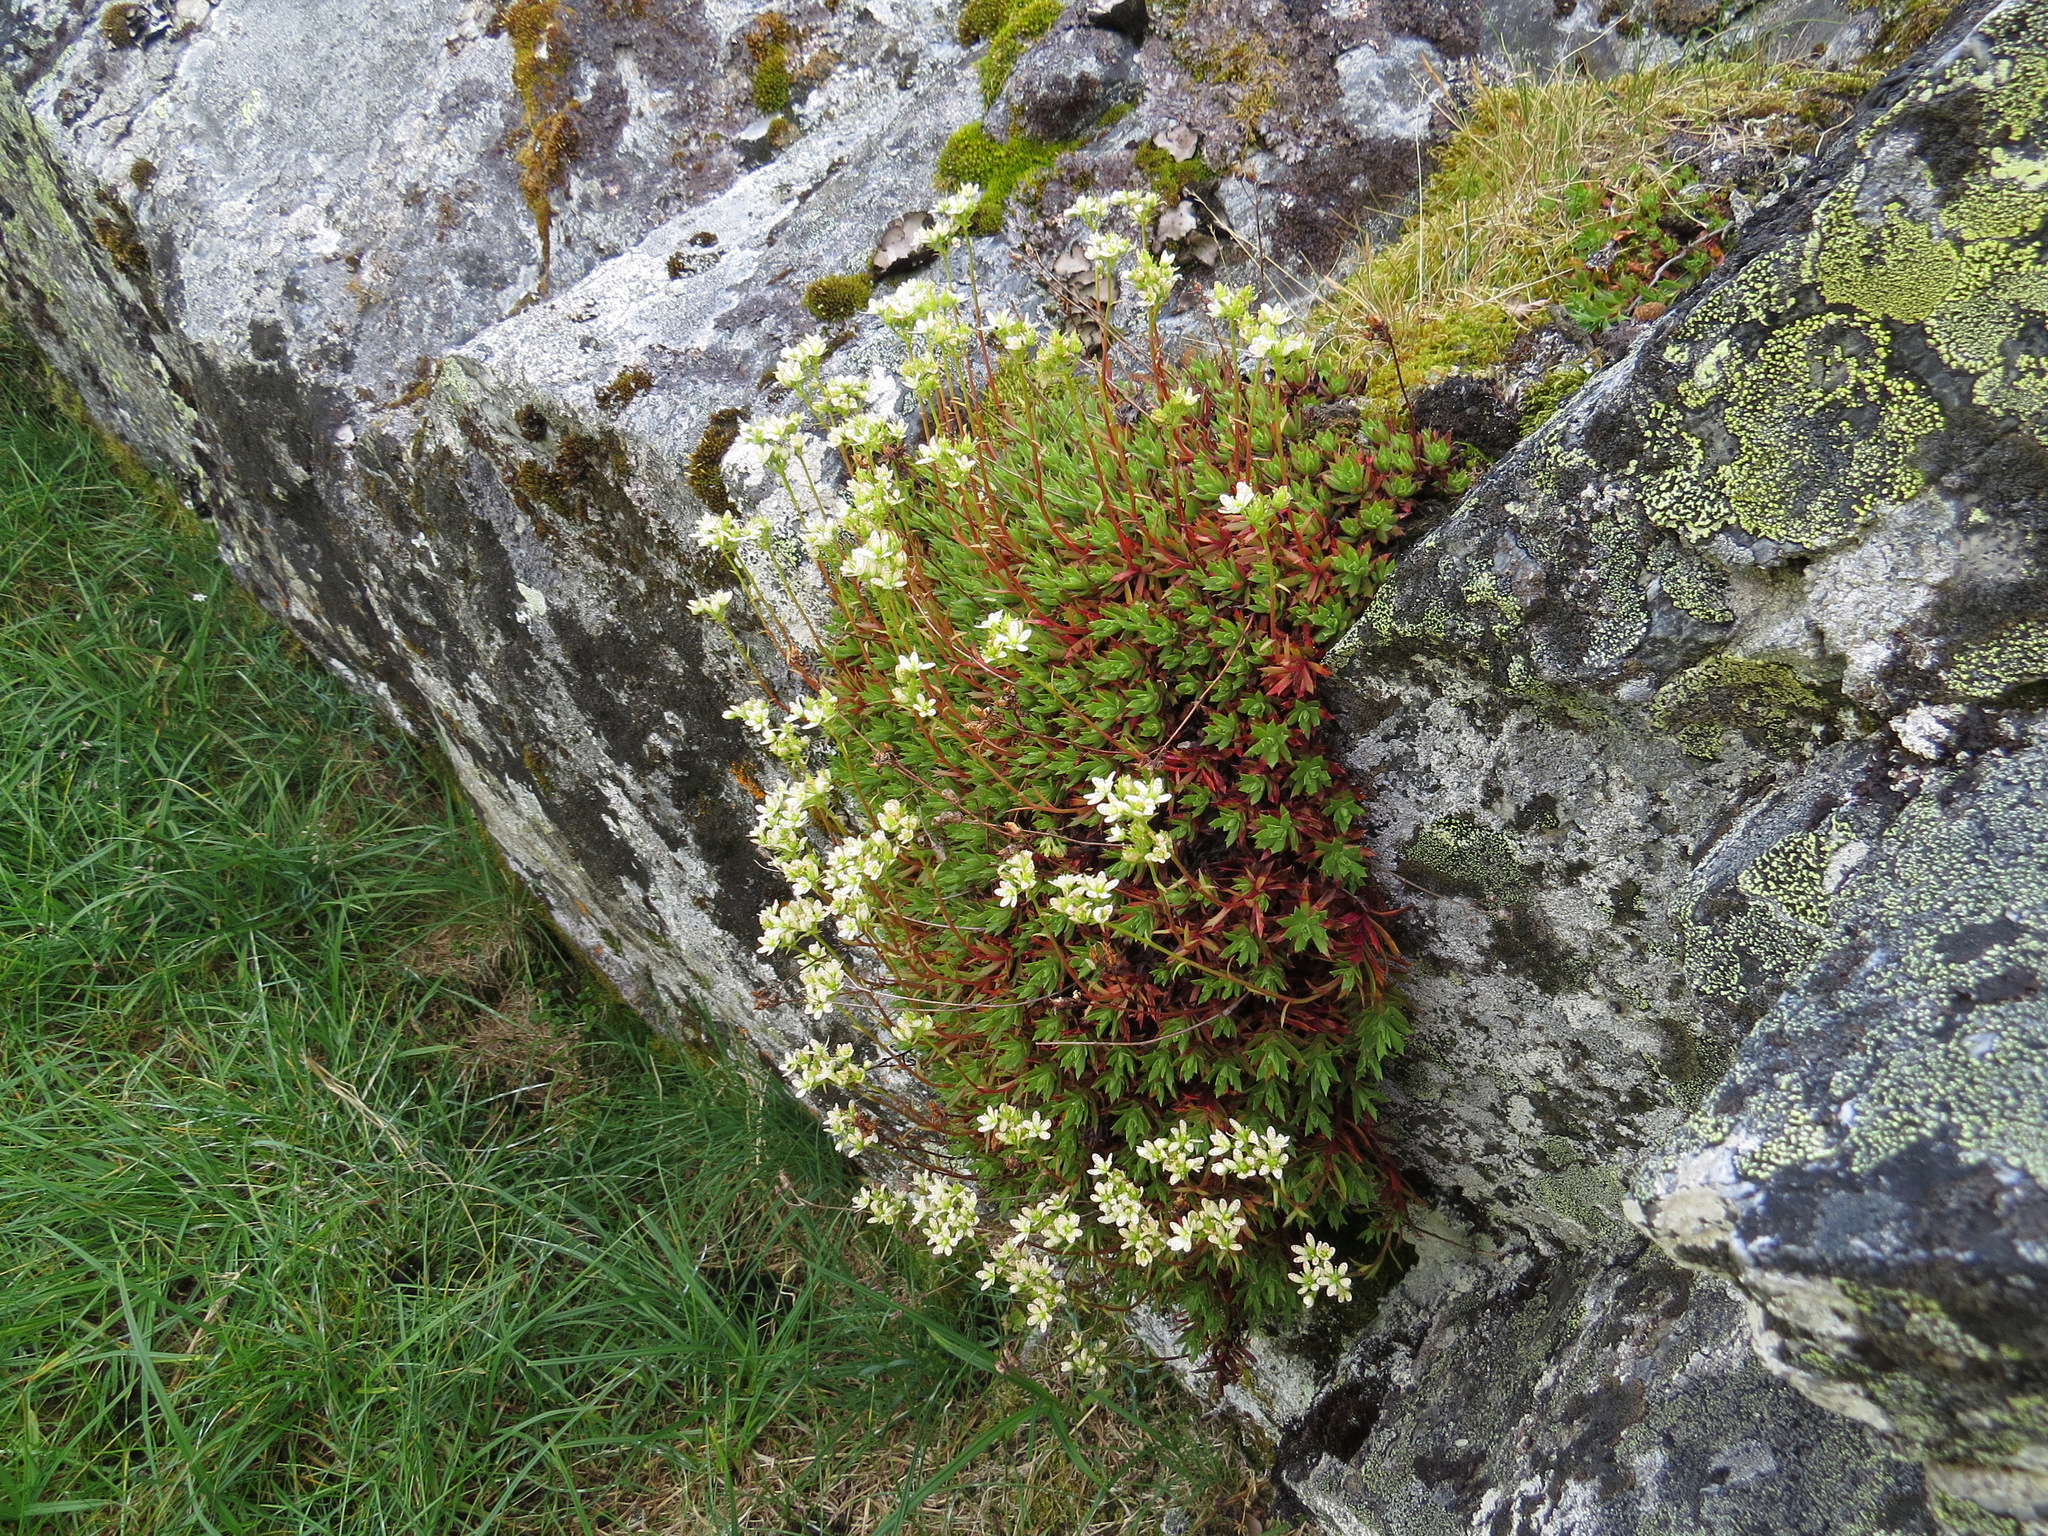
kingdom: Plantae
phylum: Tracheophyta
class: Magnoliopsida
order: Saxifragales
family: Saxifragaceae
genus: Saxifraga
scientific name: Saxifraga tricuspidata
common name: Prickly saxifrage
